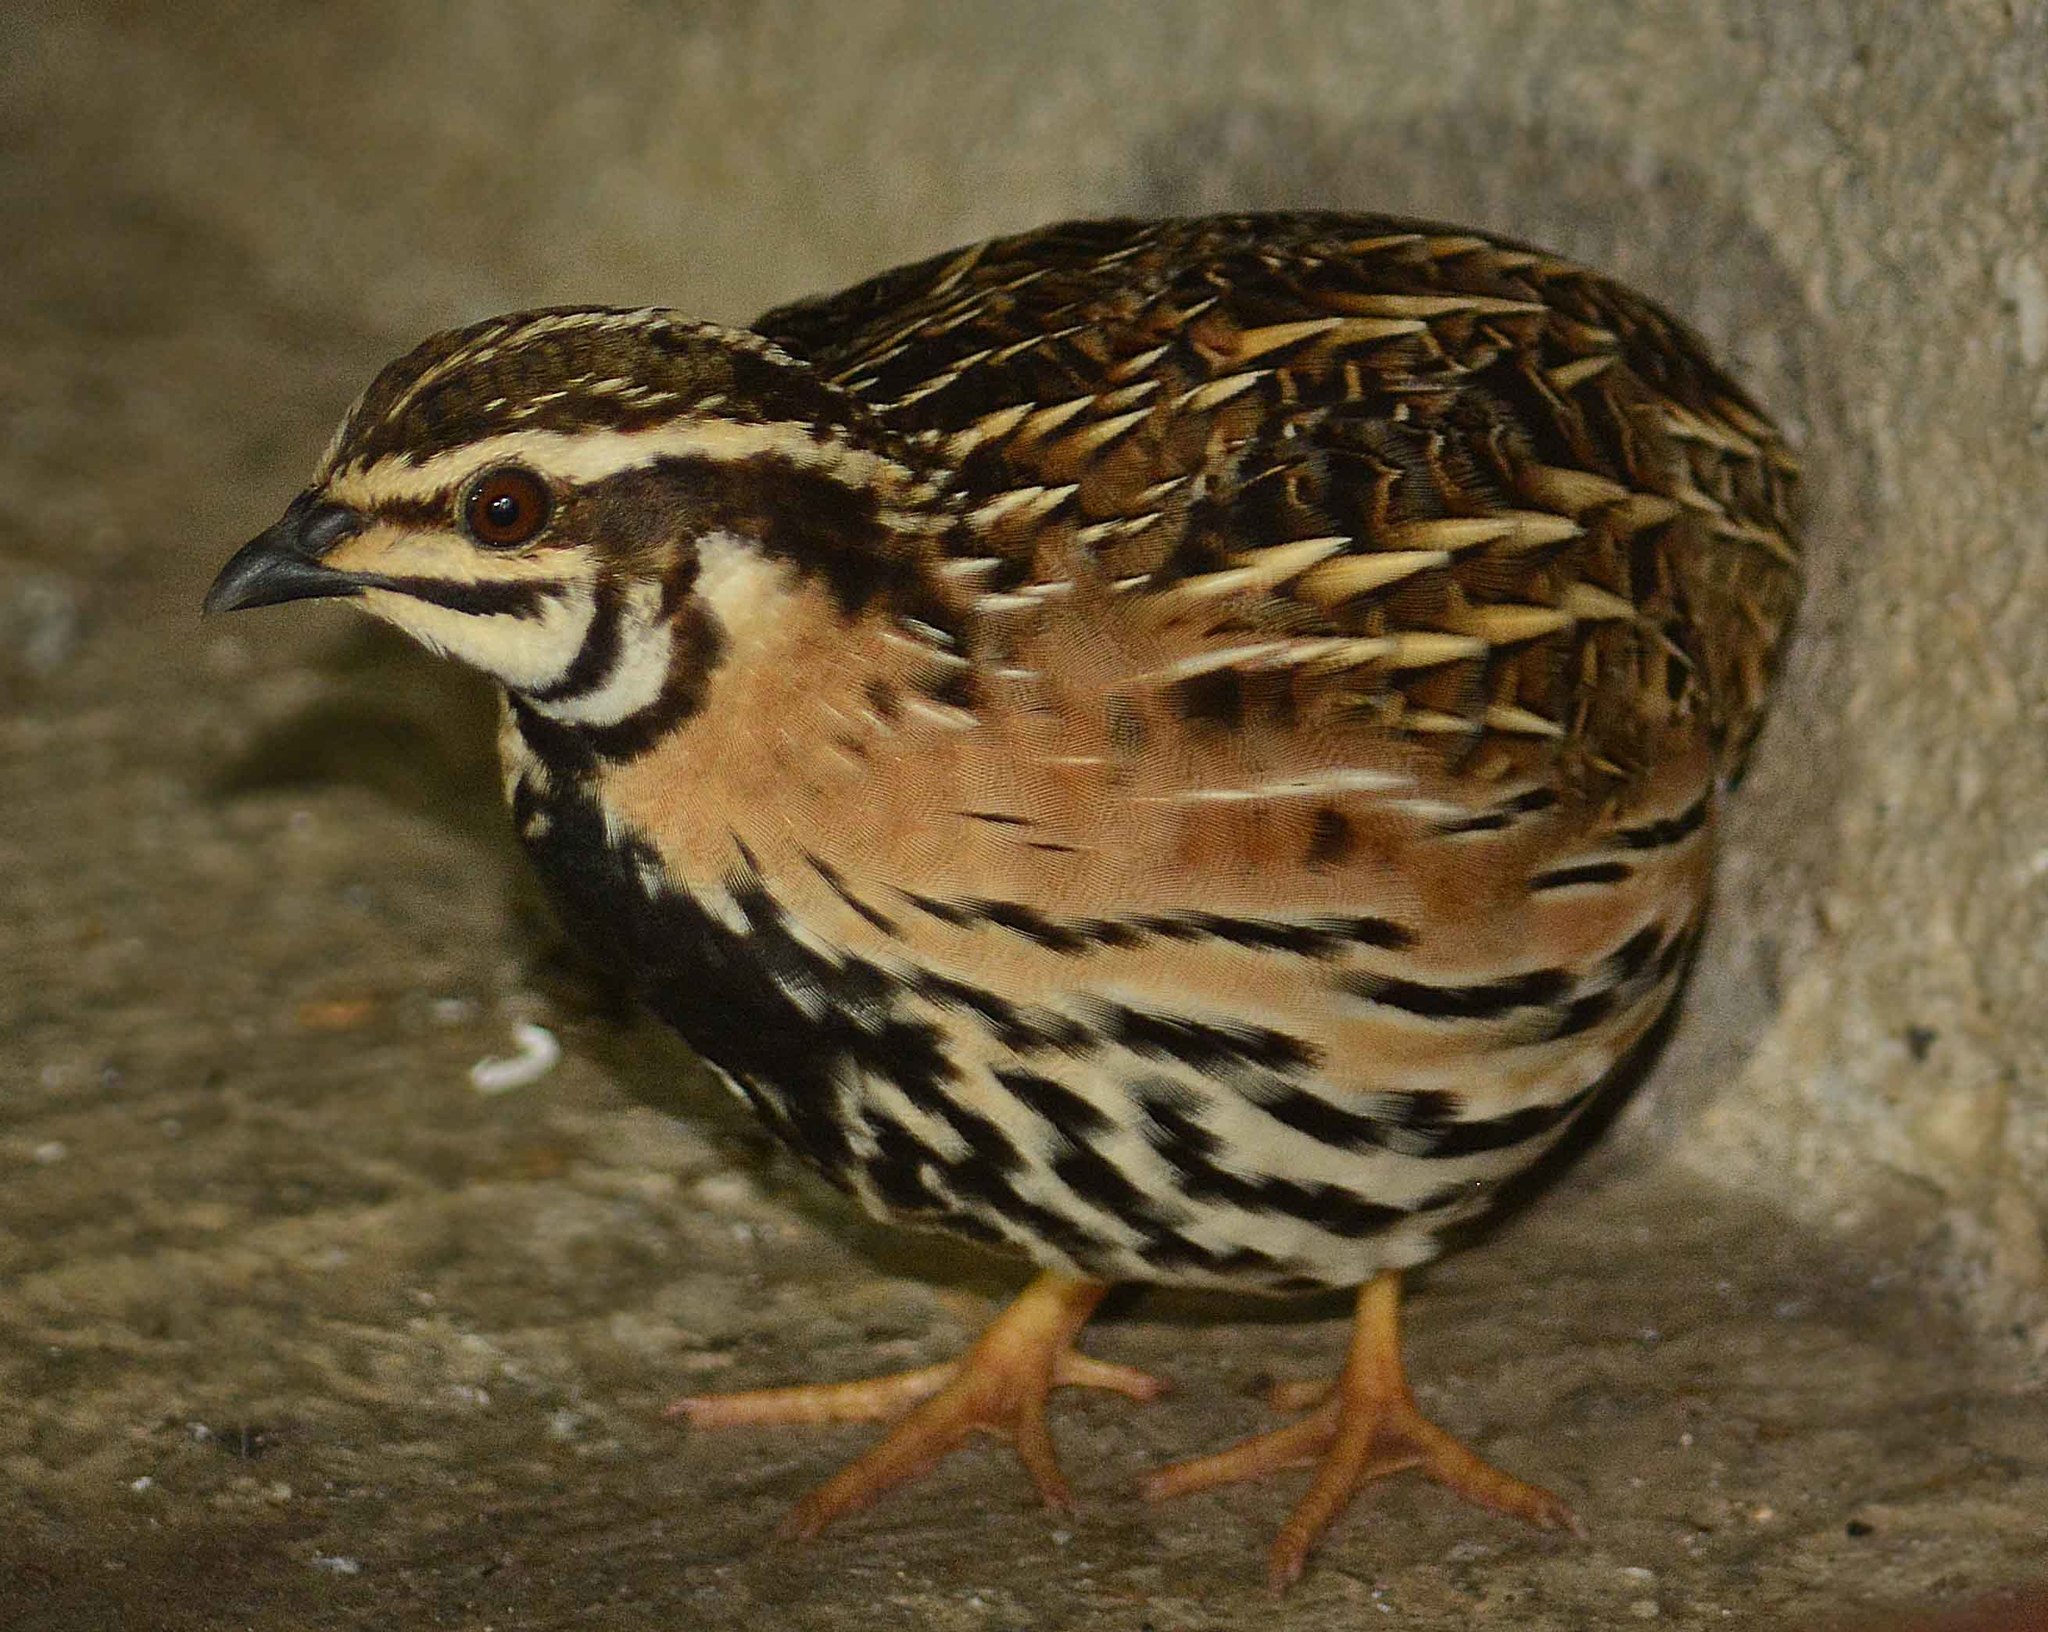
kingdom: Animalia
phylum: Chordata
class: Aves
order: Galliformes
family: Phasianidae
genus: Coturnix
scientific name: Coturnix coromandelica
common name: Rain quail
